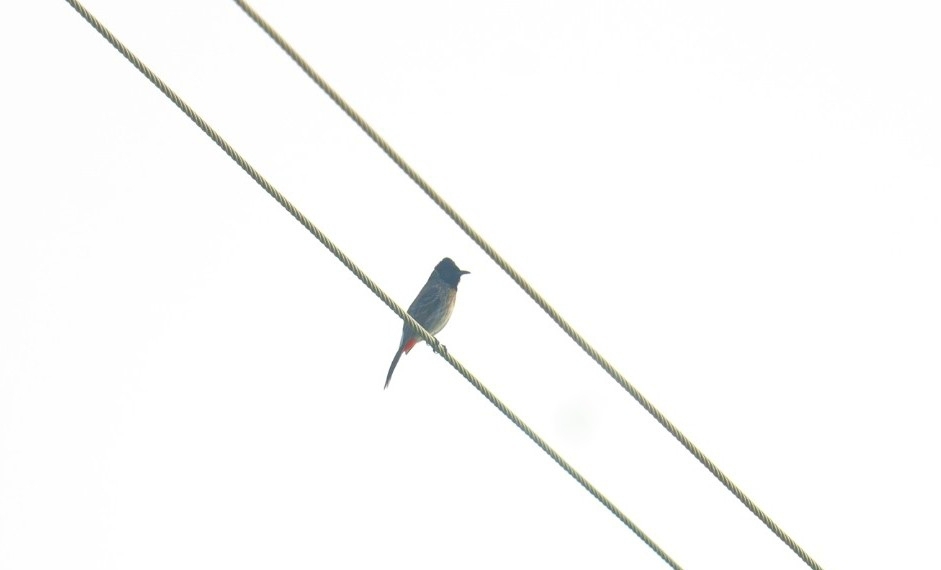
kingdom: Animalia
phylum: Chordata
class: Aves
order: Passeriformes
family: Pycnonotidae
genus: Pycnonotus
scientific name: Pycnonotus cafer
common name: Red-vented bulbul
